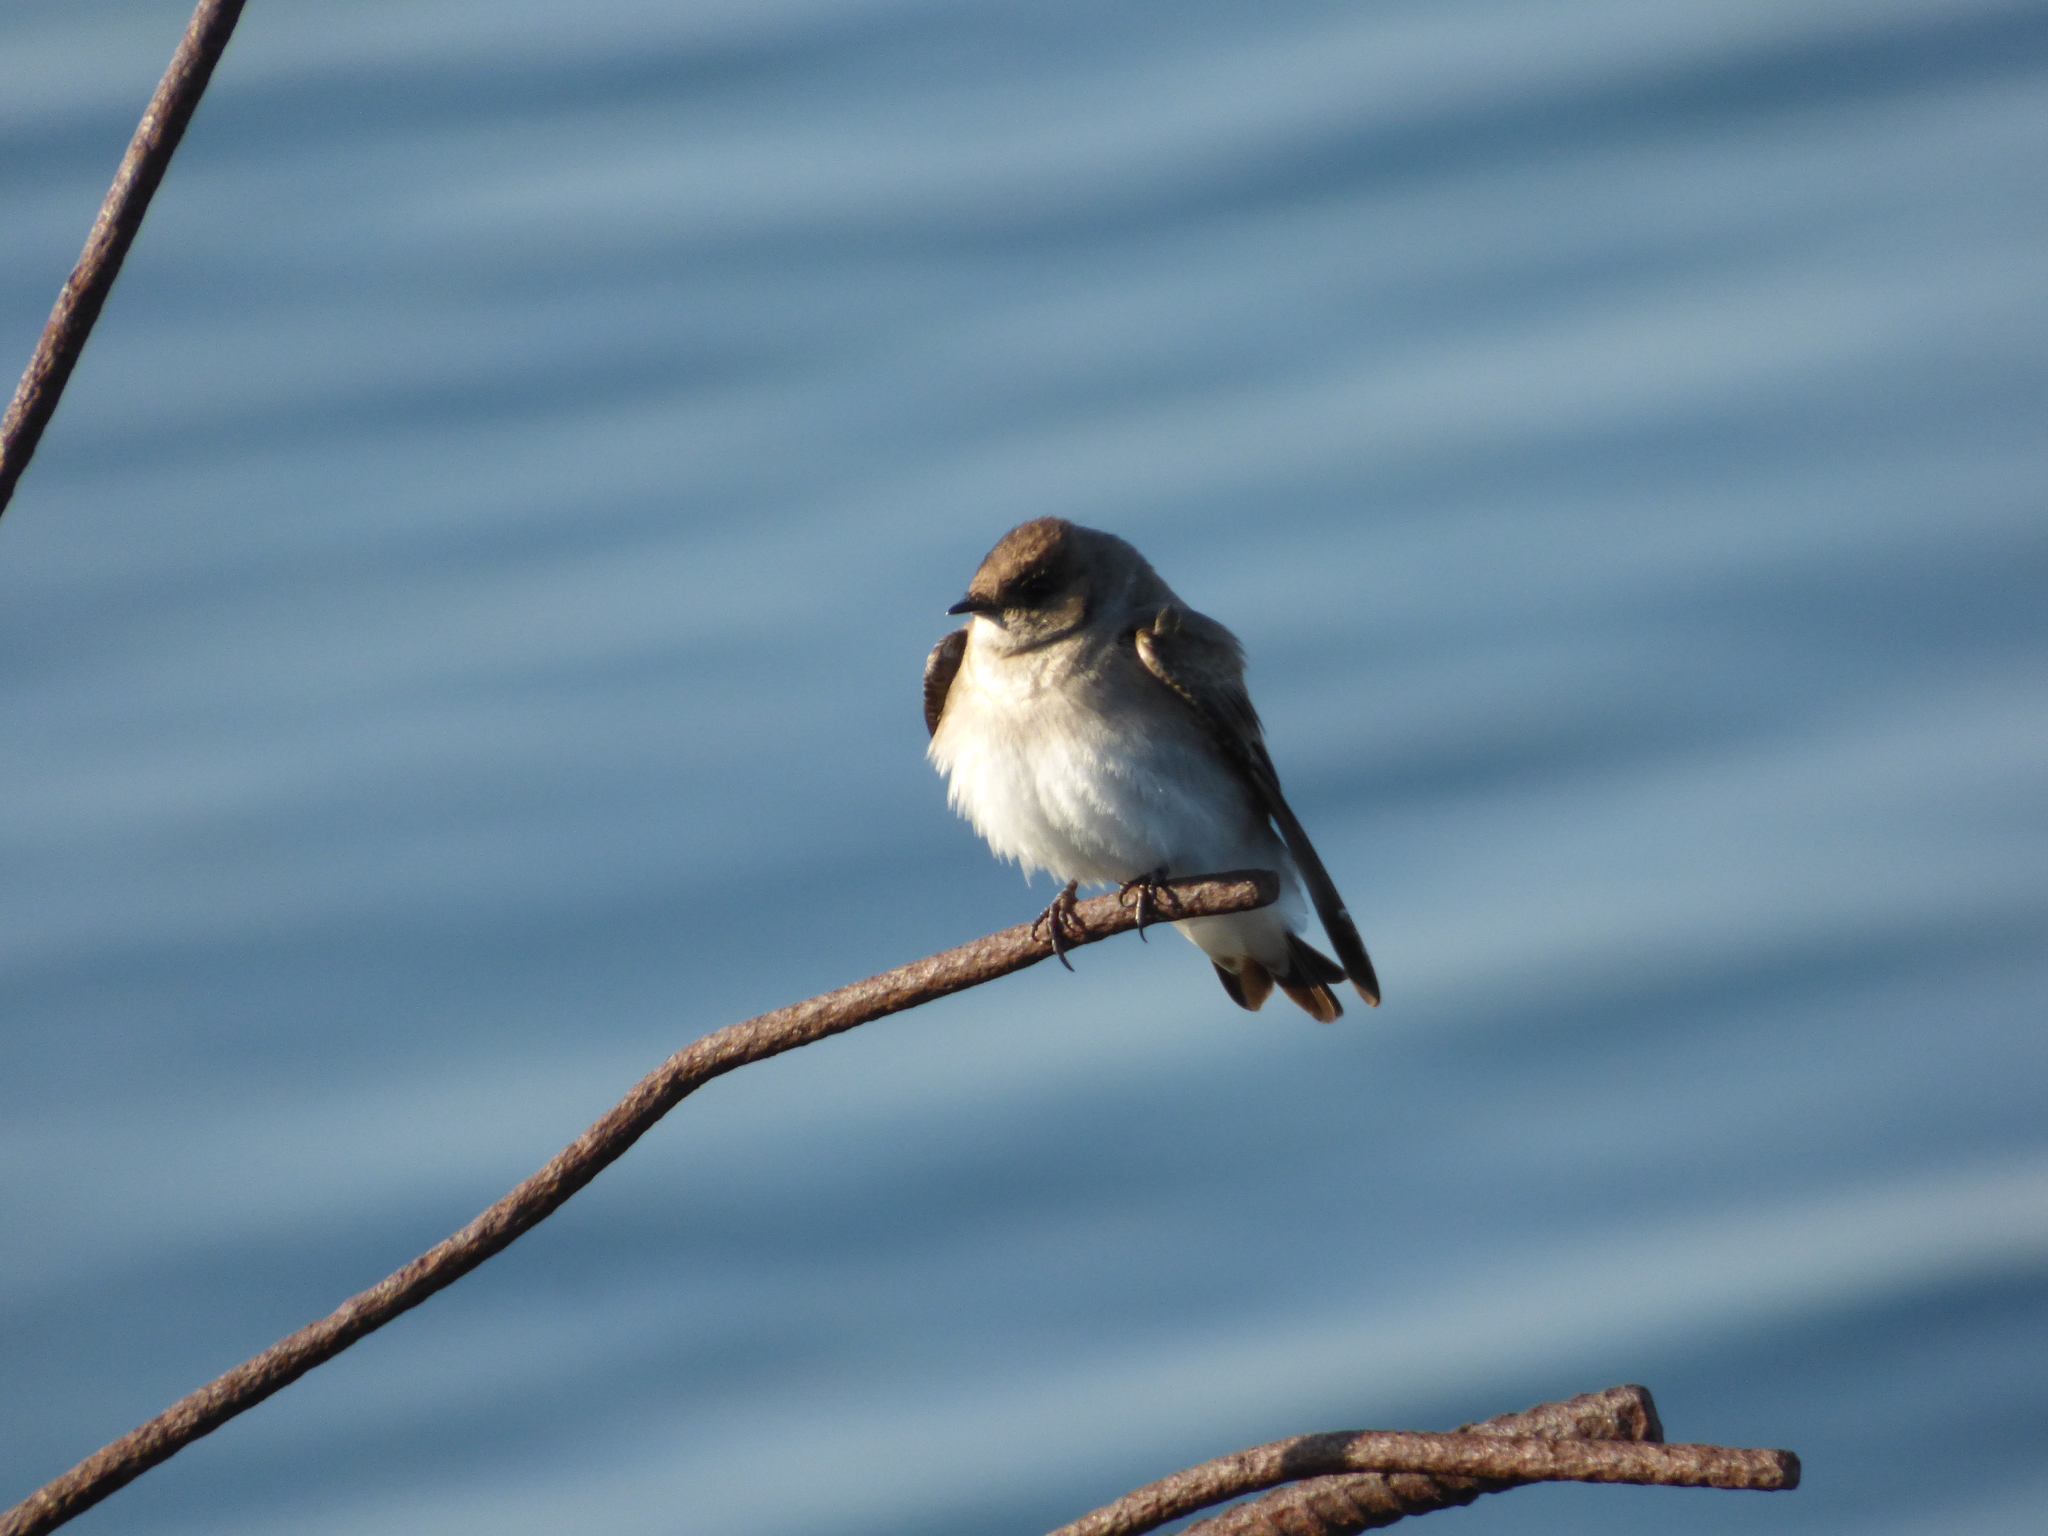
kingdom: Animalia
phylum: Chordata
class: Aves
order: Passeriformes
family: Hirundinidae
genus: Stelgidopteryx
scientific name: Stelgidopteryx serripennis
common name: Northern rough-winged swallow
